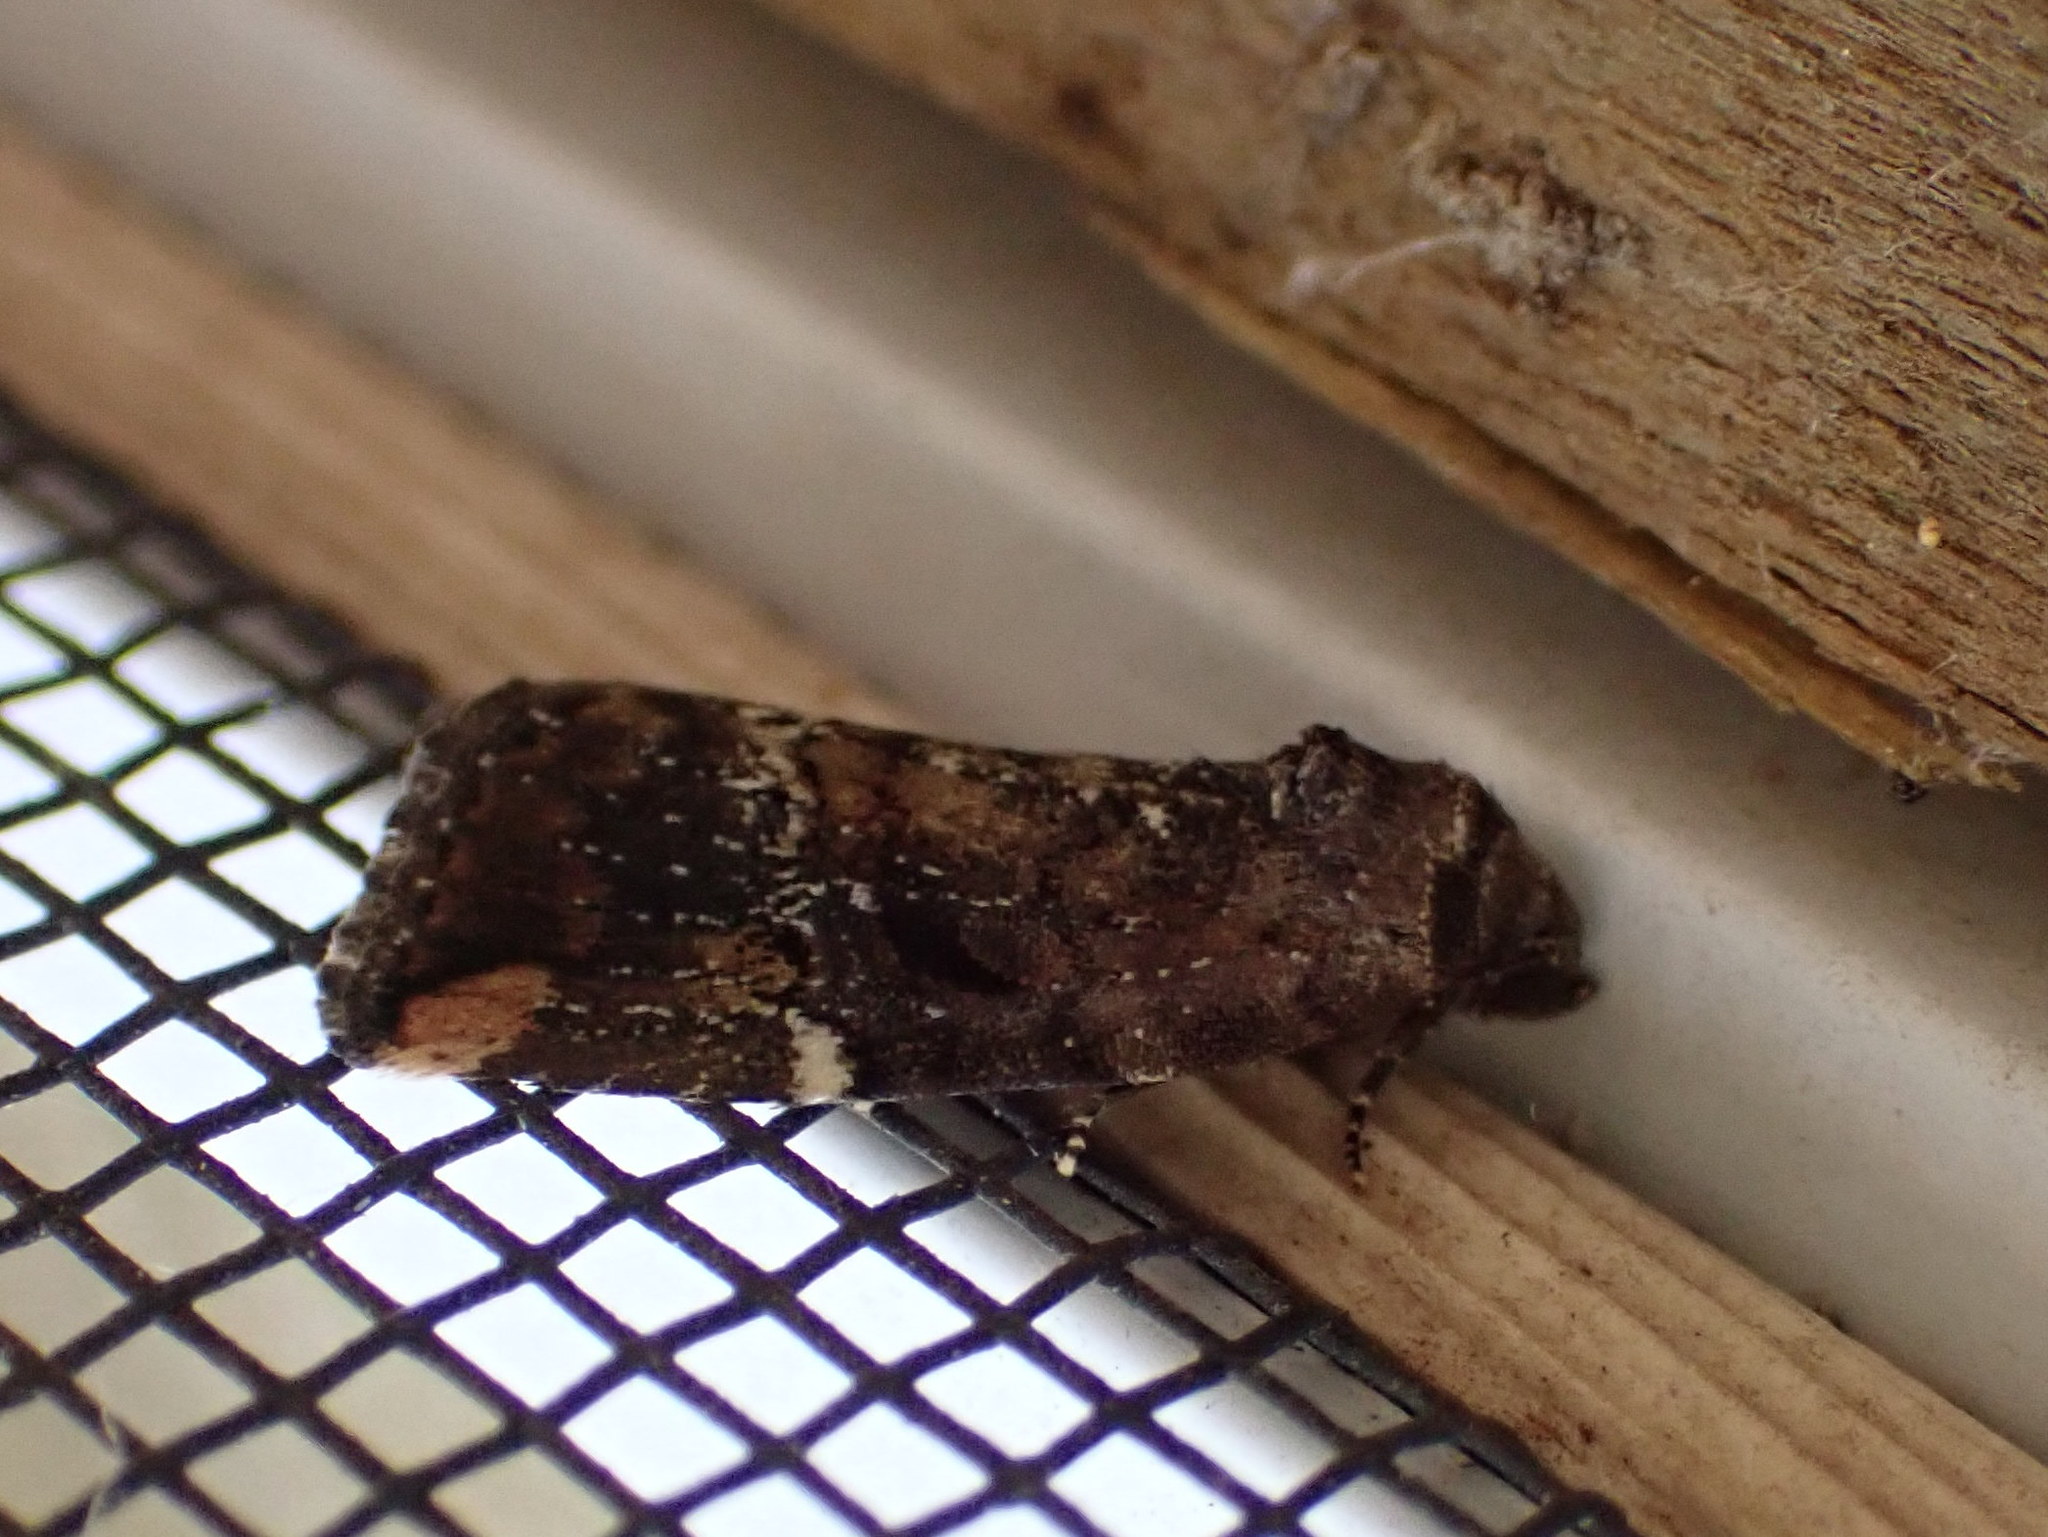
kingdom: Animalia
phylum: Arthropoda
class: Insecta
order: Lepidoptera
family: Noctuidae
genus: Elaphria
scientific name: Elaphria versicolor
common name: Fir harlequin
